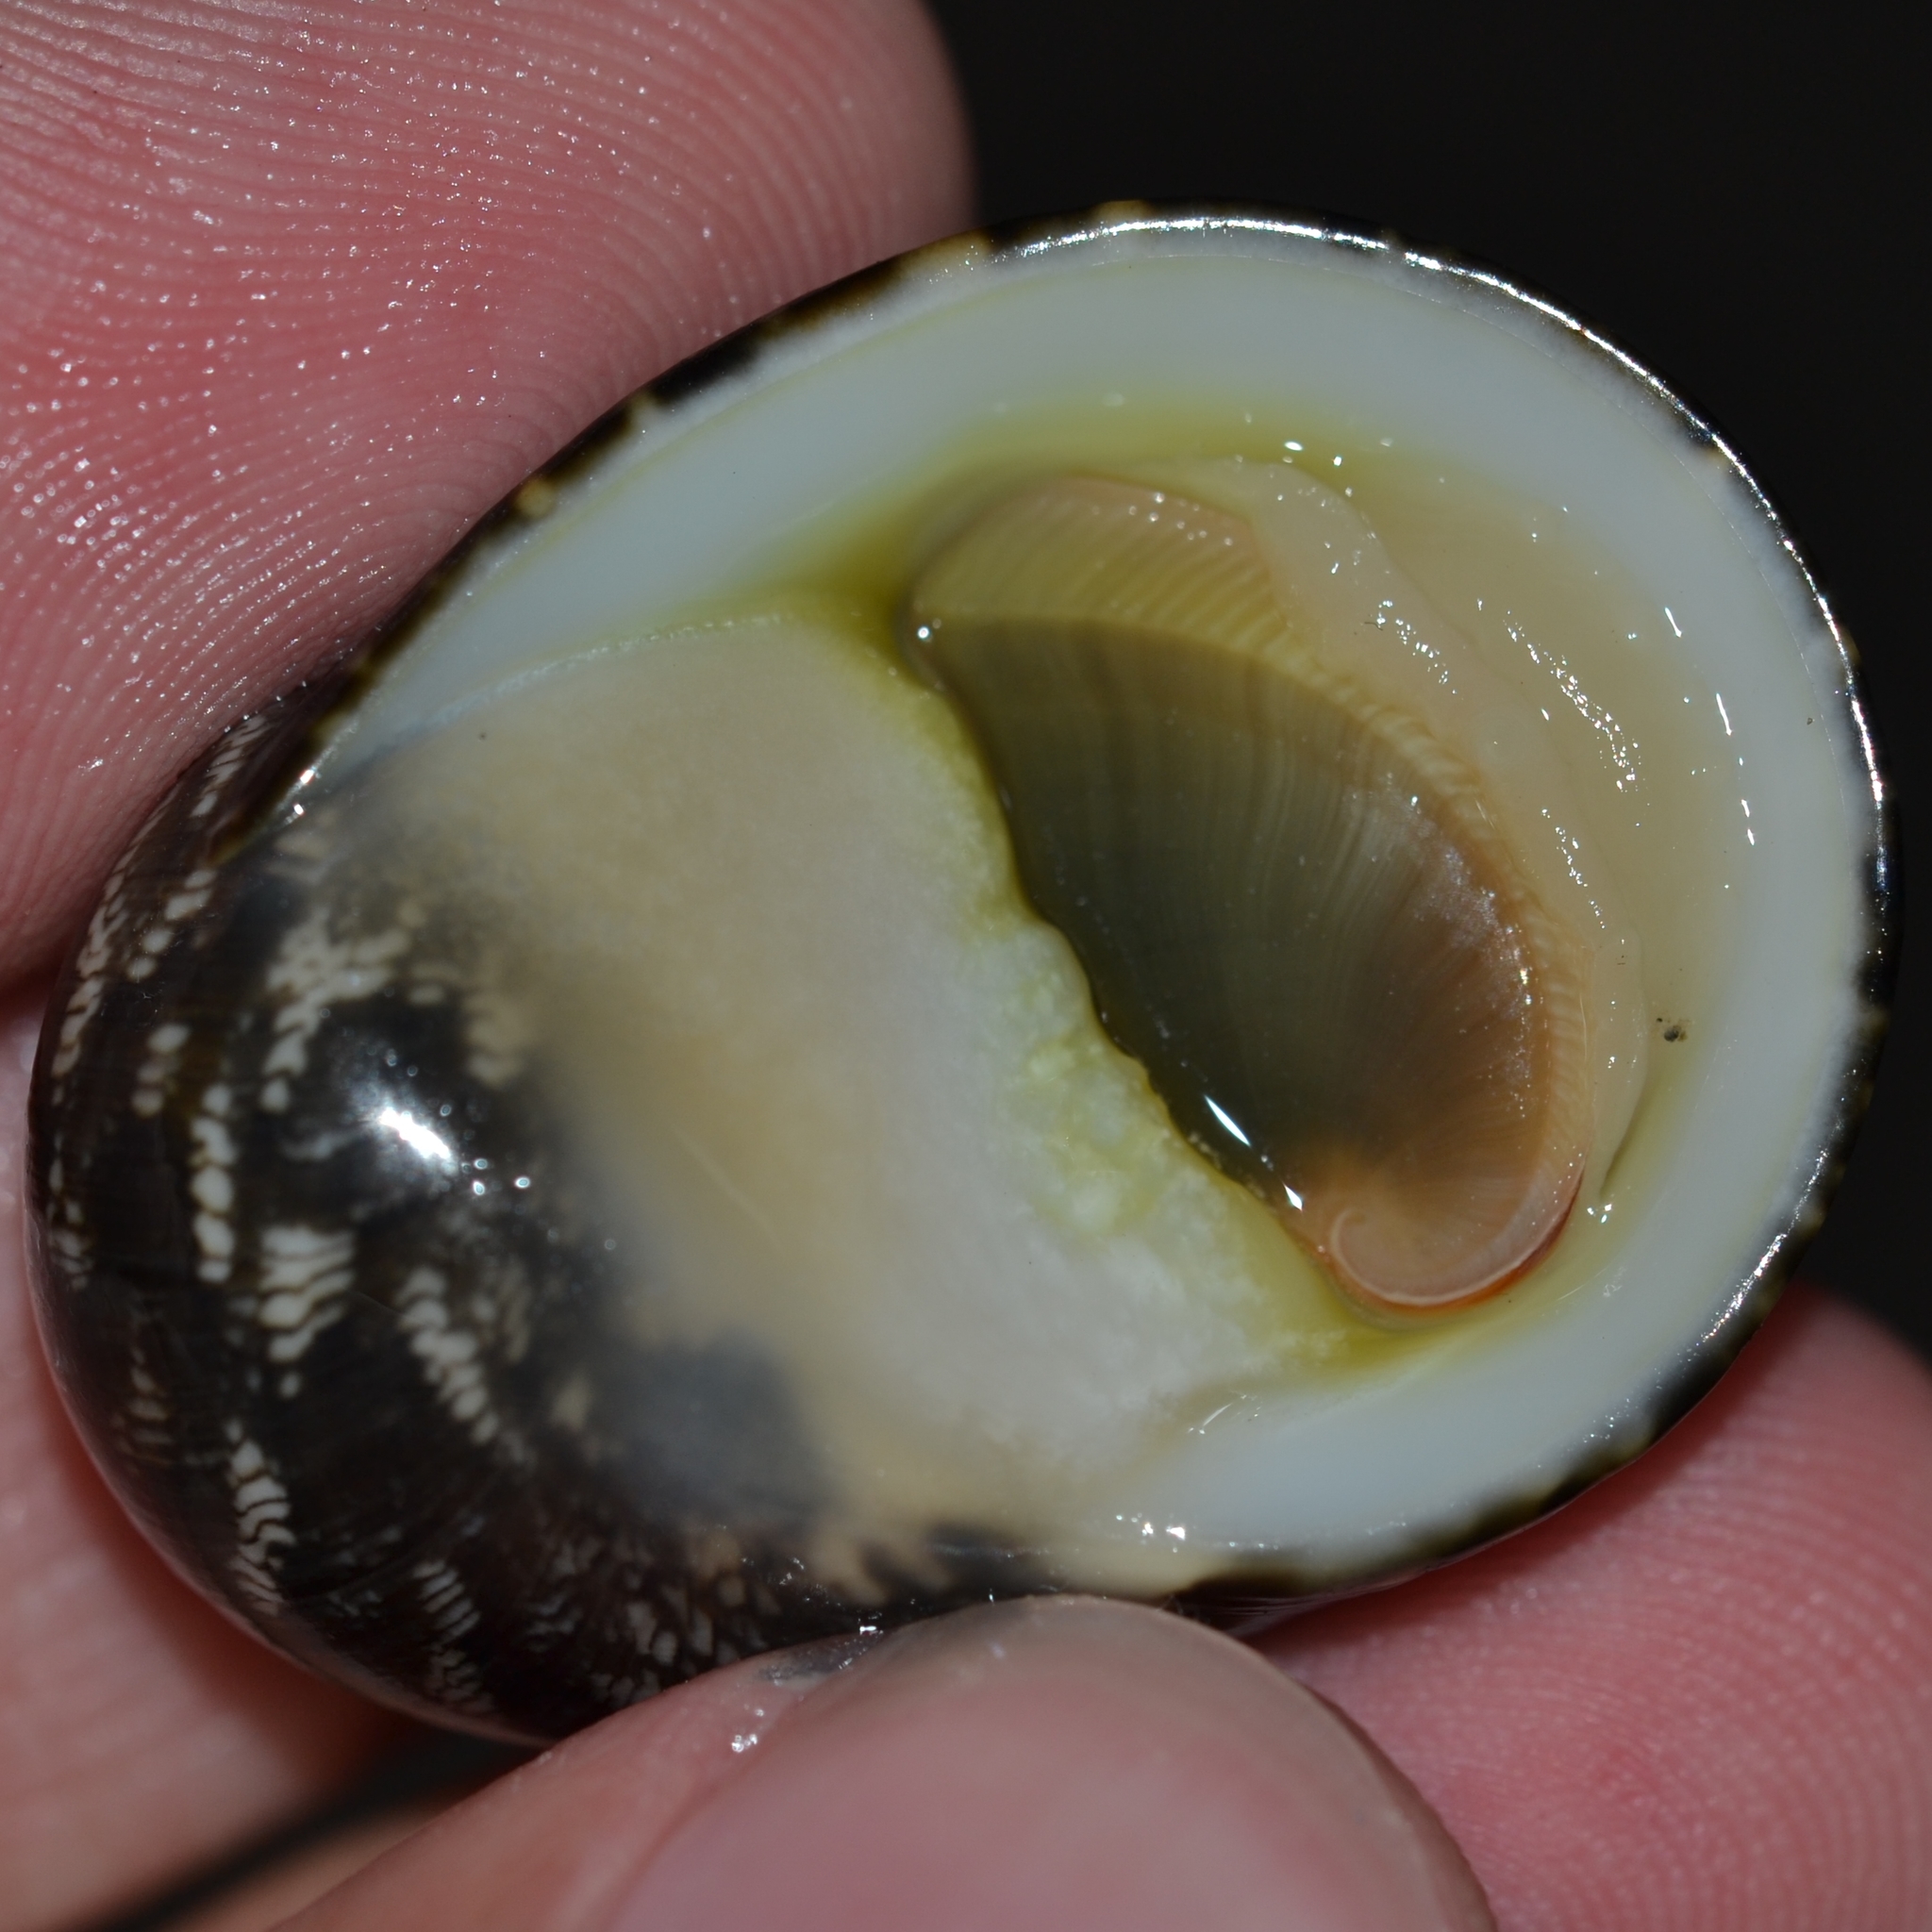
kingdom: Animalia
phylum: Mollusca
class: Gastropoda
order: Cycloneritida
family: Neritidae
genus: Nerita
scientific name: Nerita polita
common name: Polished nerite
